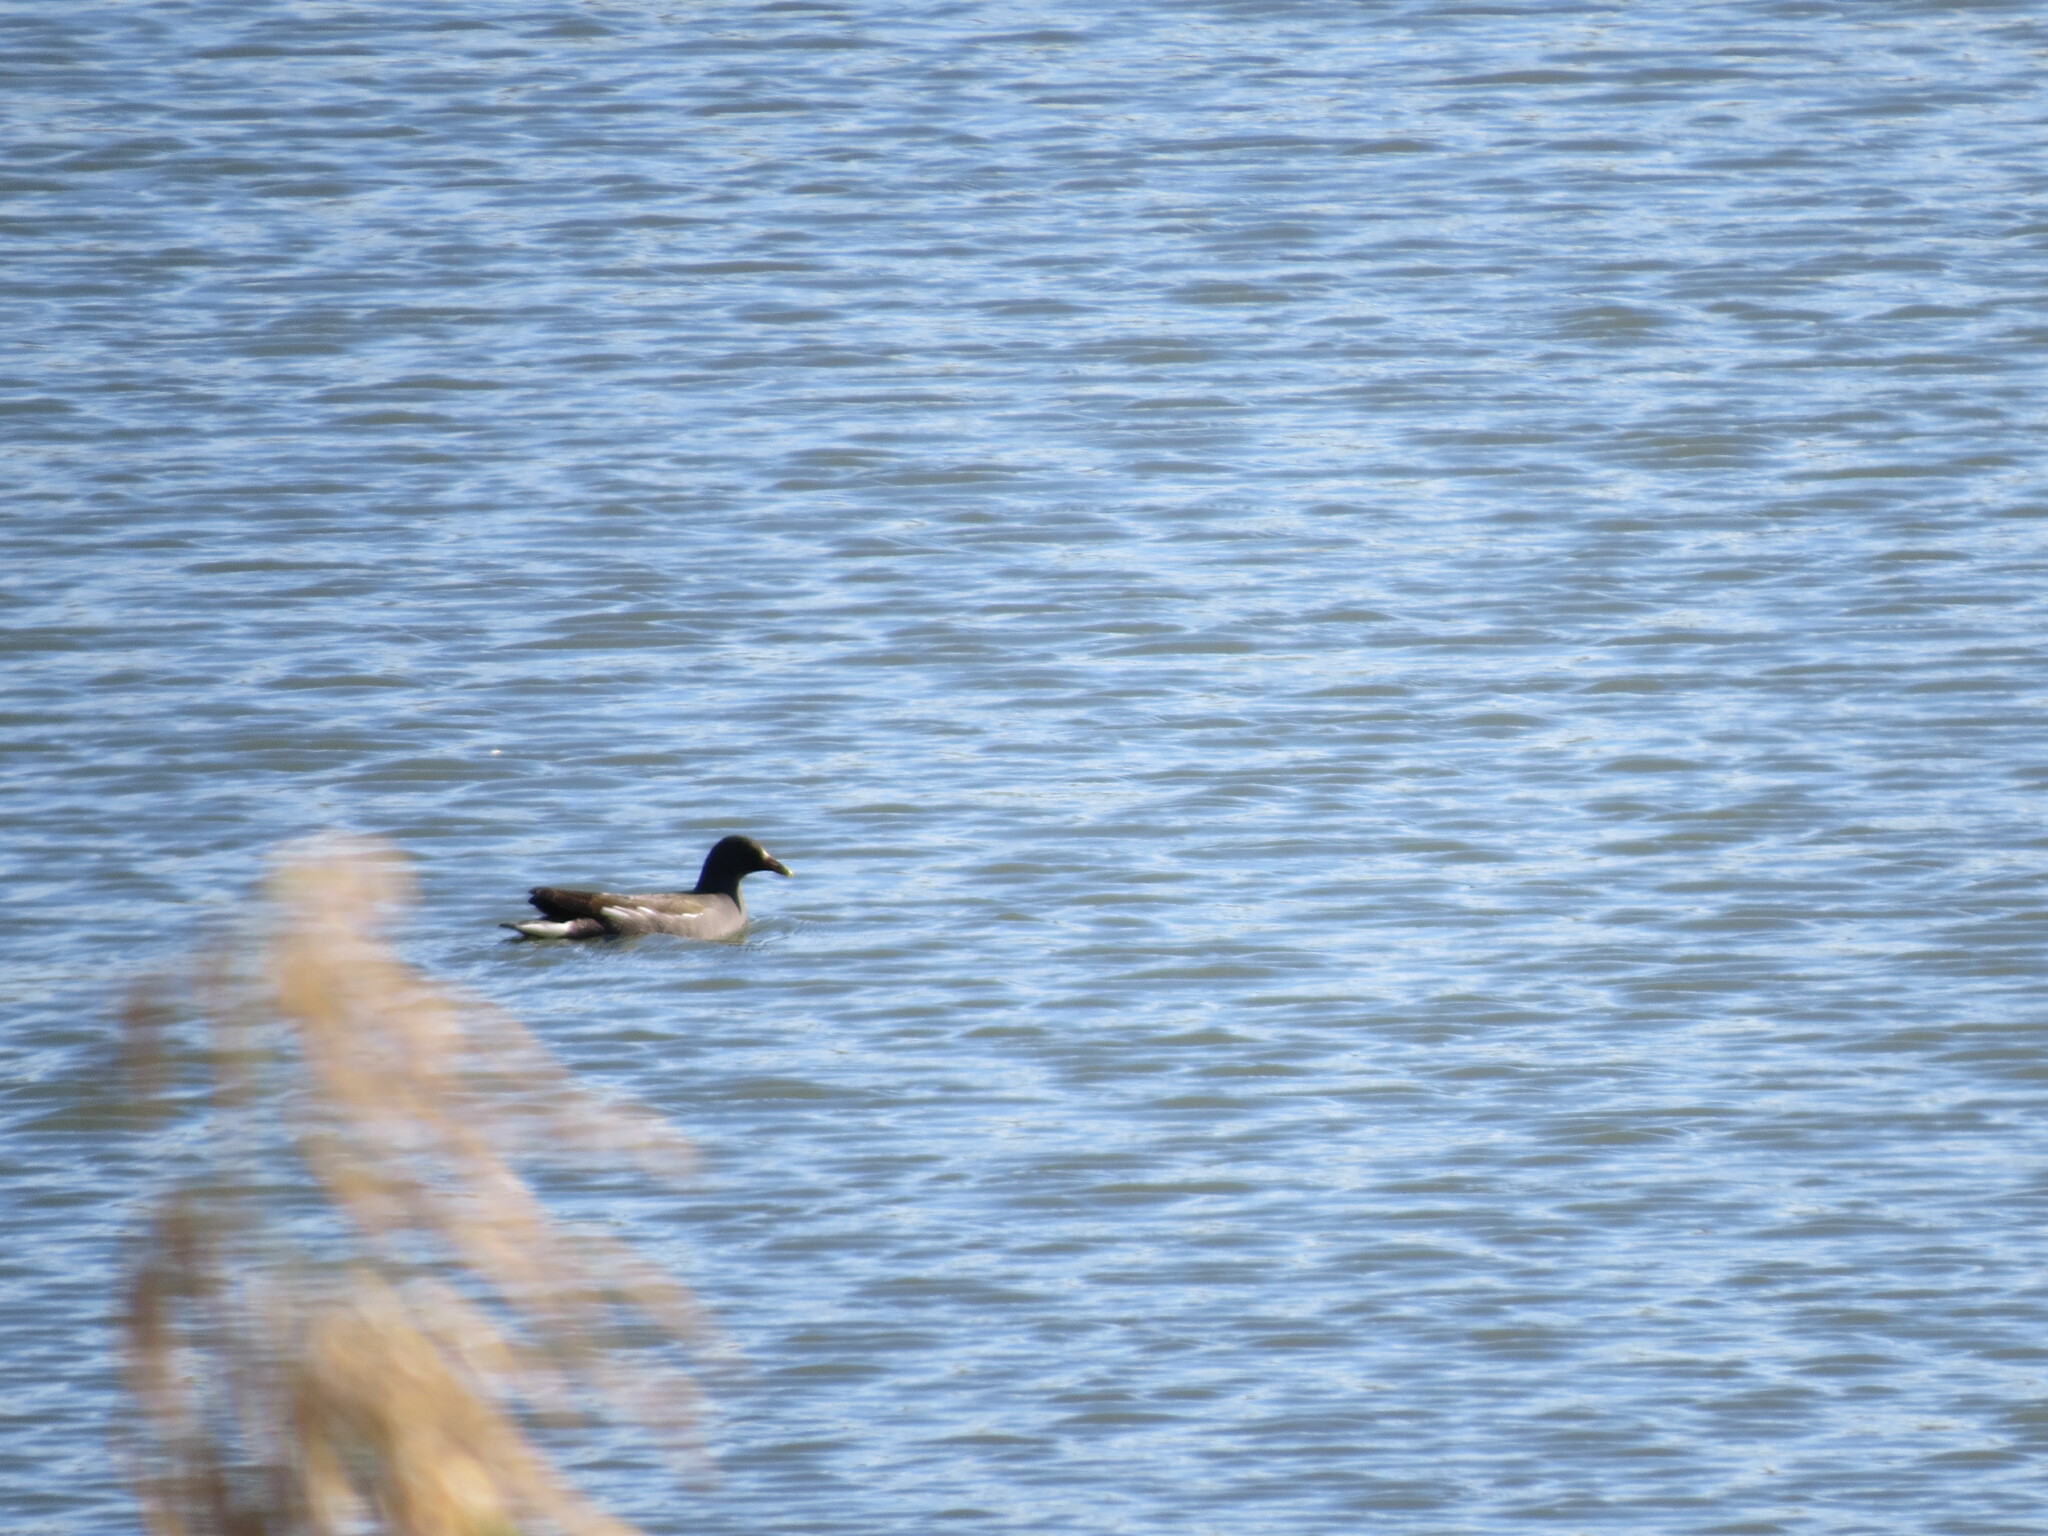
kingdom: Animalia
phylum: Chordata
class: Aves
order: Gruiformes
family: Rallidae
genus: Gallinula
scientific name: Gallinula chloropus
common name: Common moorhen
